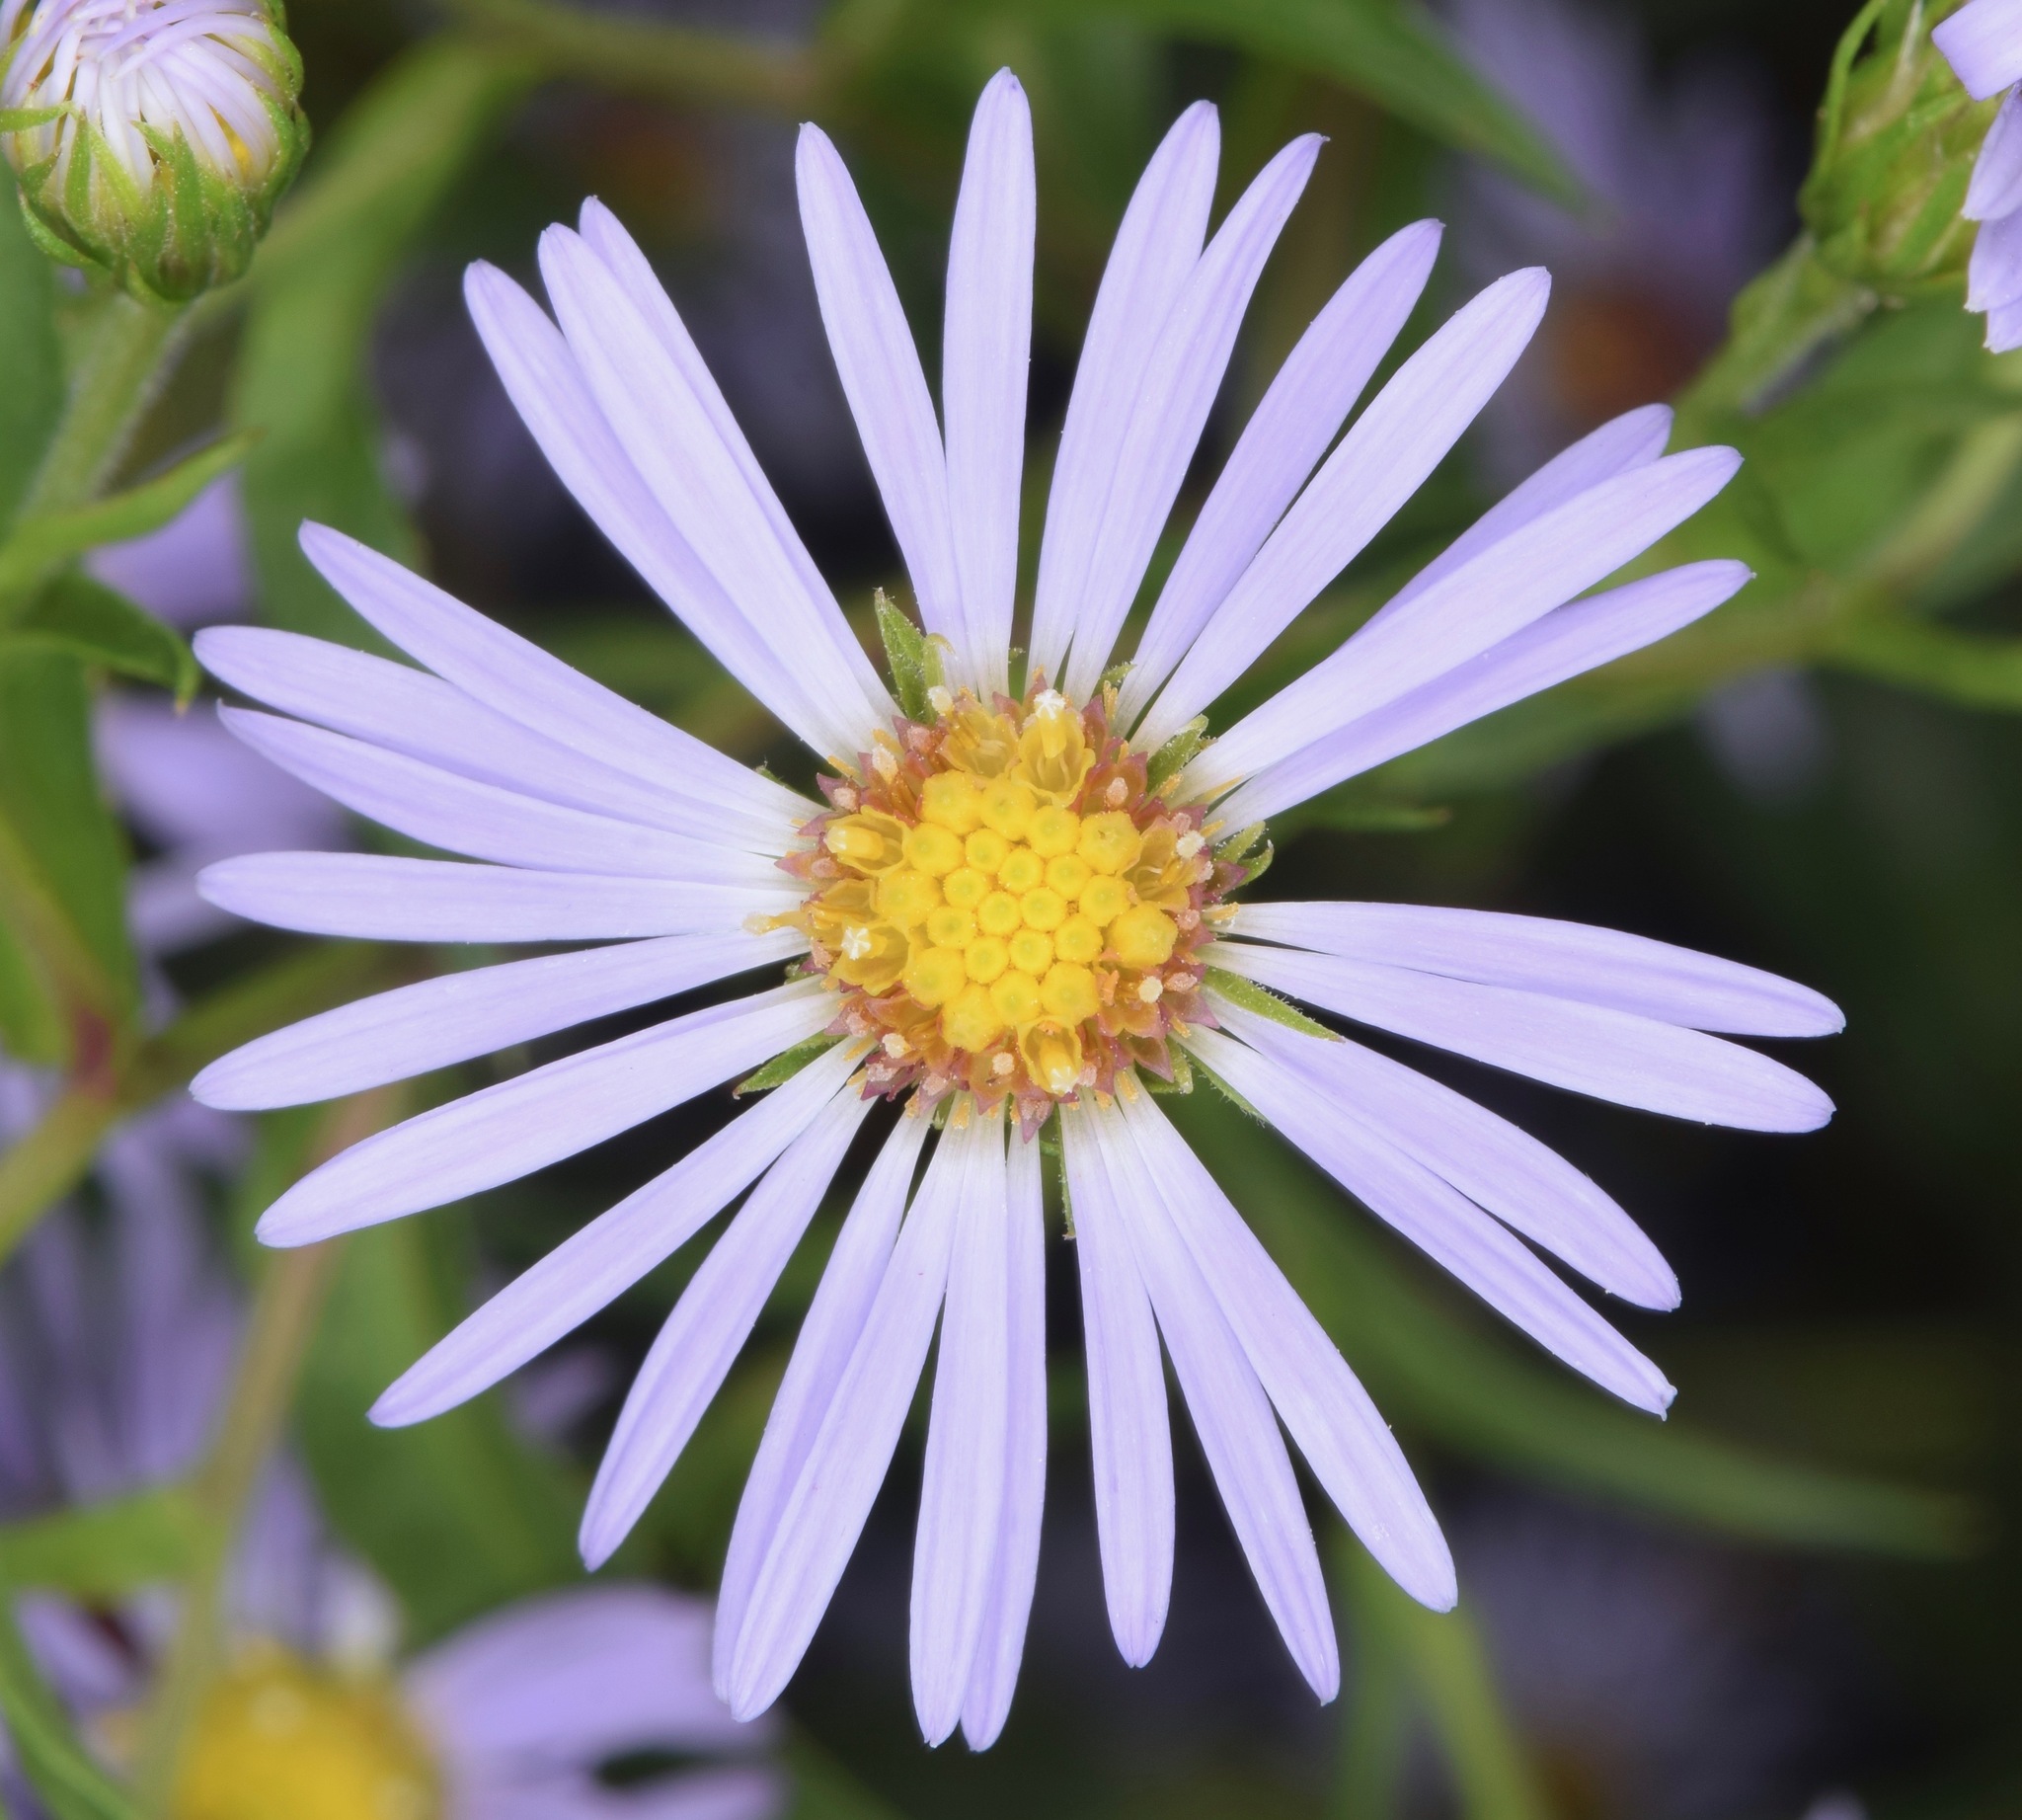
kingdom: Plantae
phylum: Tracheophyta
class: Magnoliopsida
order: Asterales
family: Asteraceae
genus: Symphyotrichum
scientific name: Symphyotrichum puniceum
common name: Bog aster
